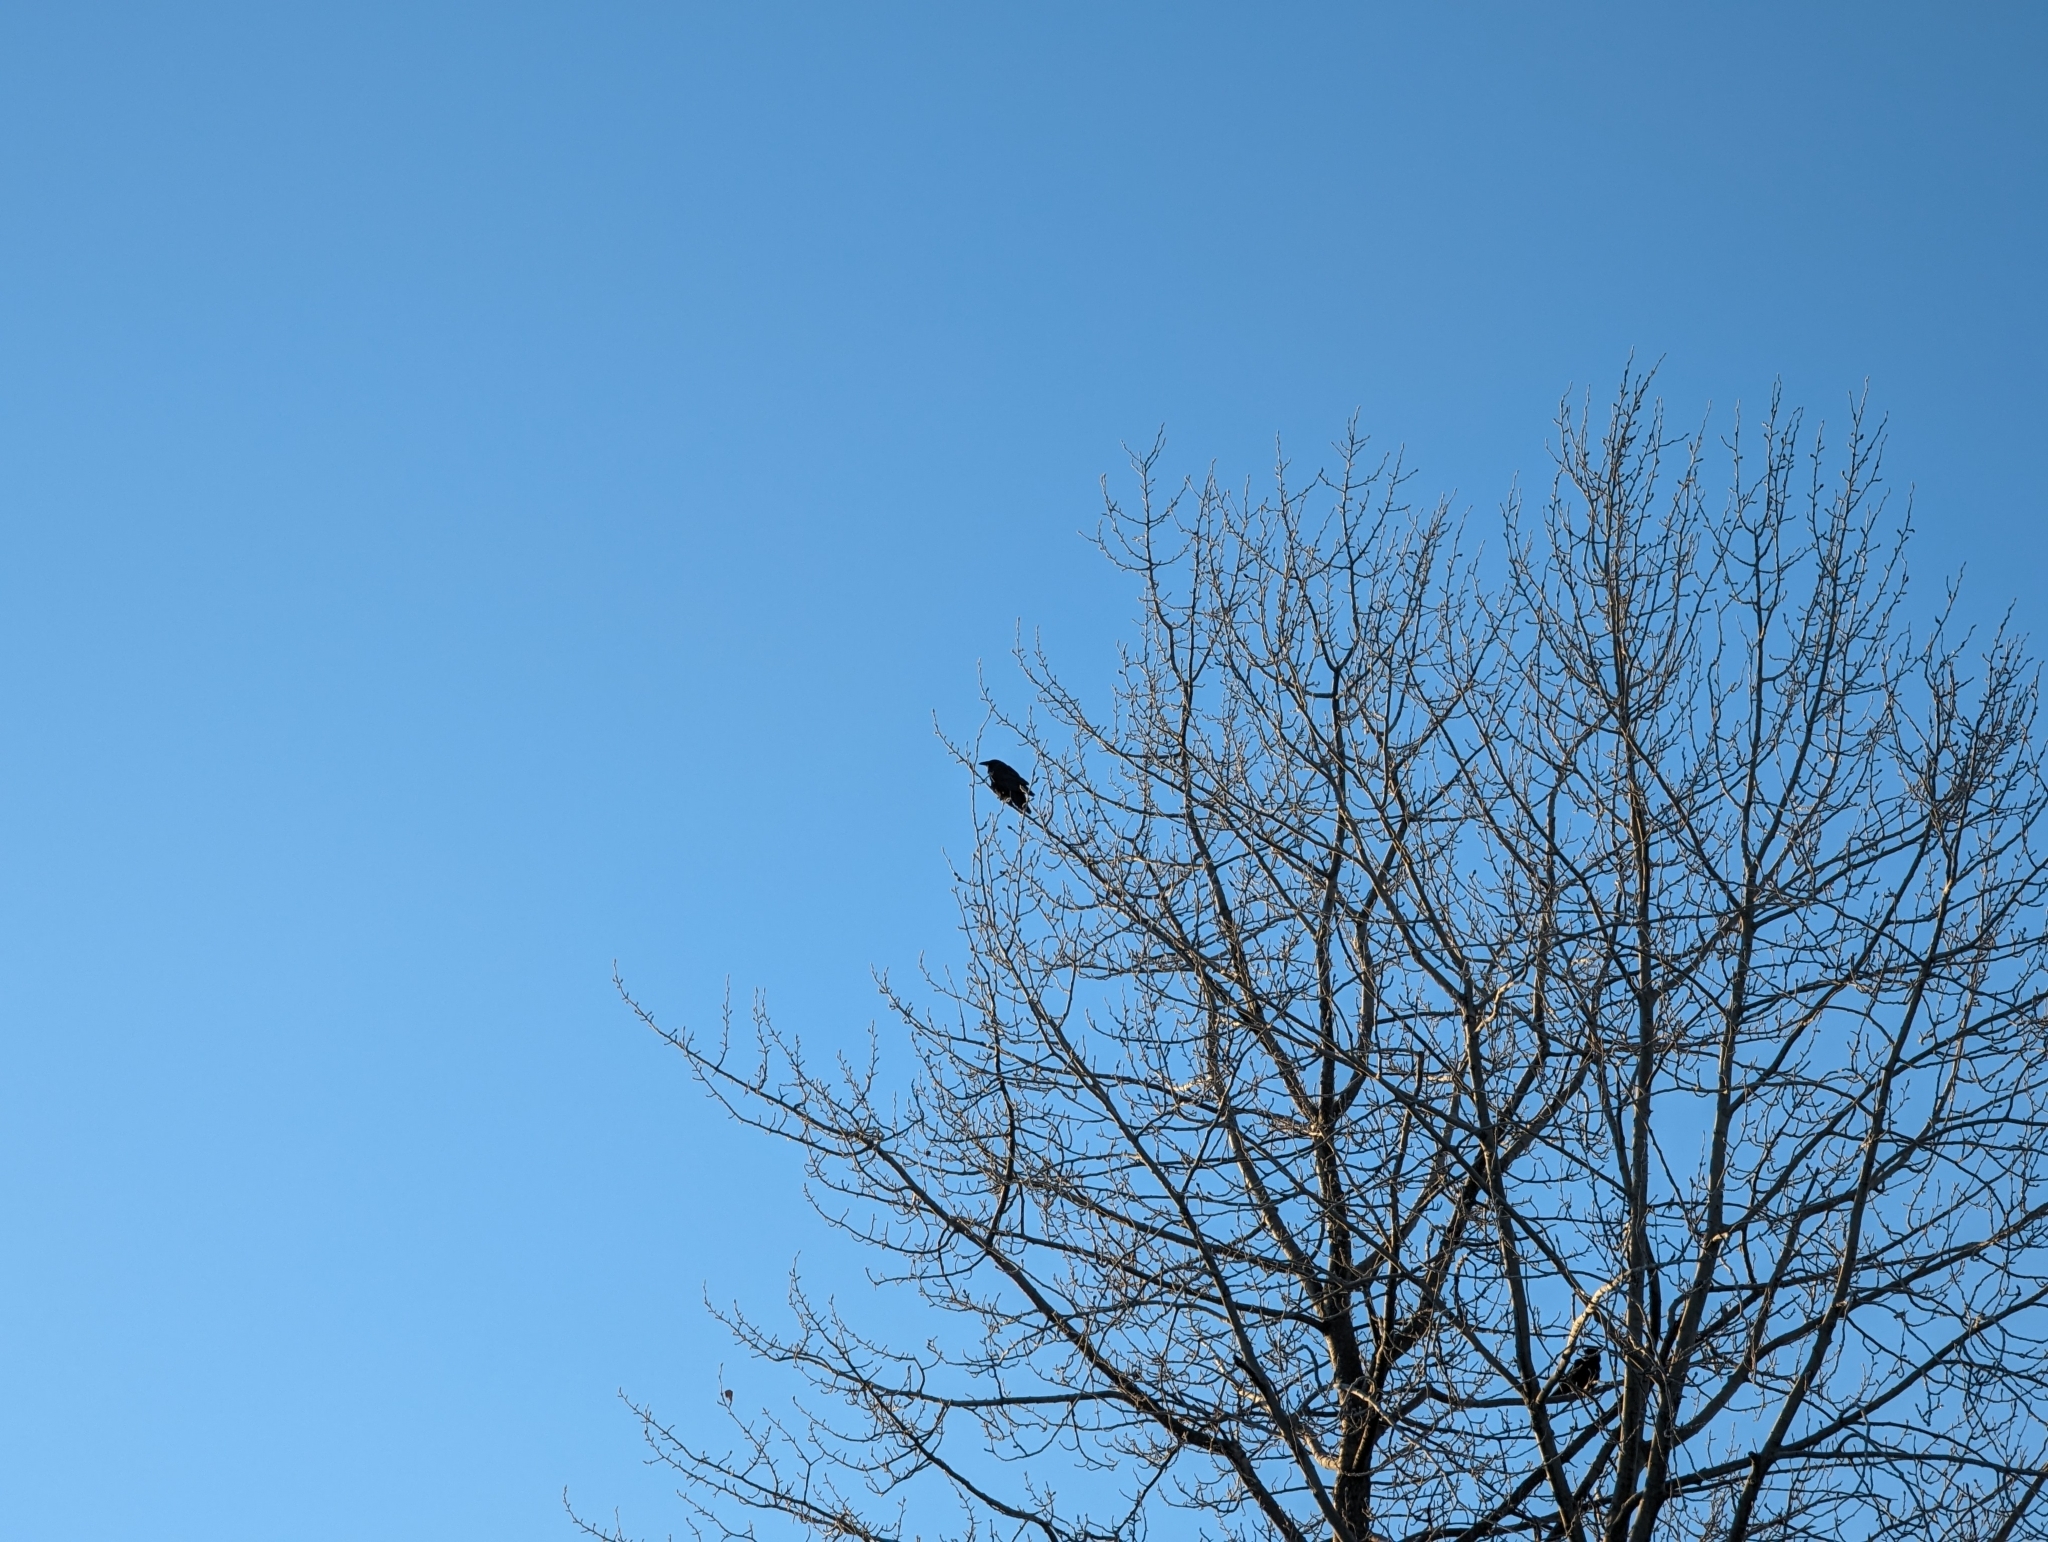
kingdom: Animalia
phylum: Chordata
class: Aves
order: Passeriformes
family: Corvidae
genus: Corvus
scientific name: Corvus corax
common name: Common raven
